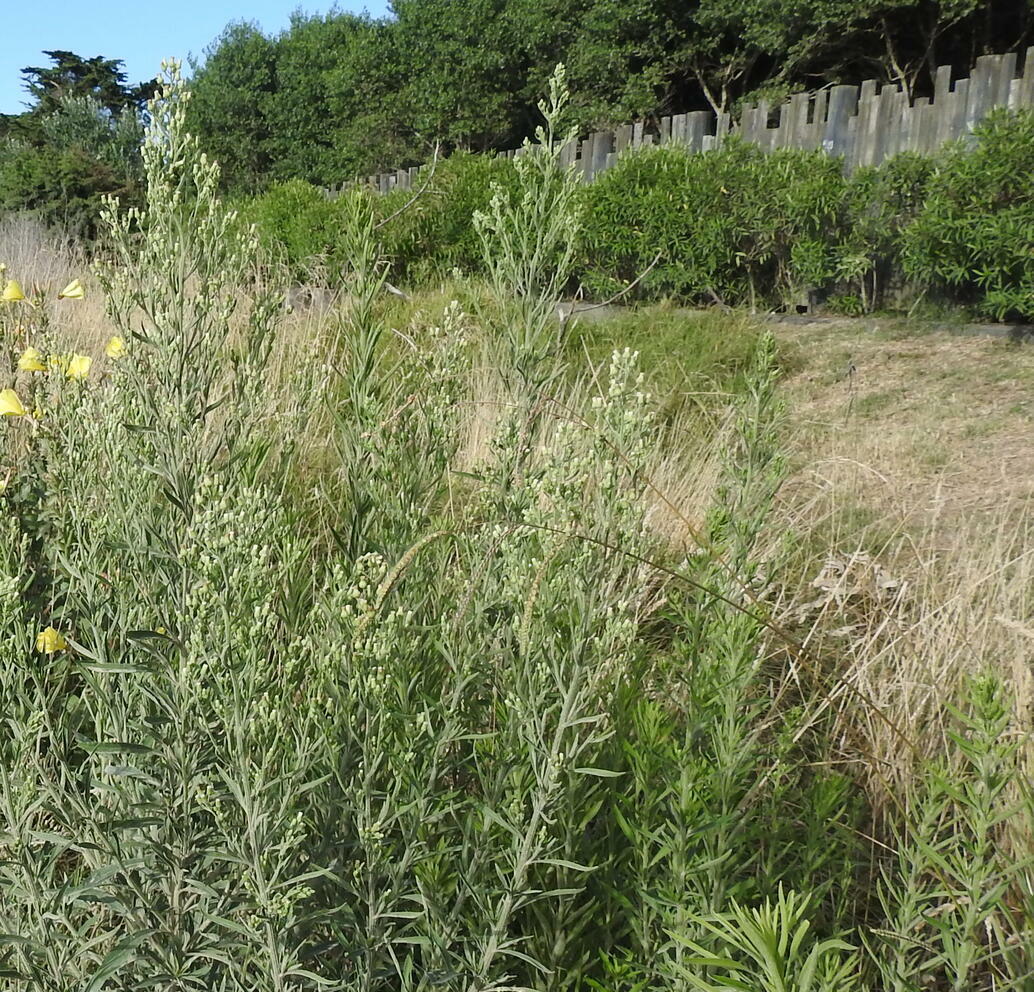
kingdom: Plantae
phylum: Tracheophyta
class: Magnoliopsida
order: Asterales
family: Asteraceae
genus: Erigeron
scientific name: Erigeron sumatrensis
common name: Daisy
